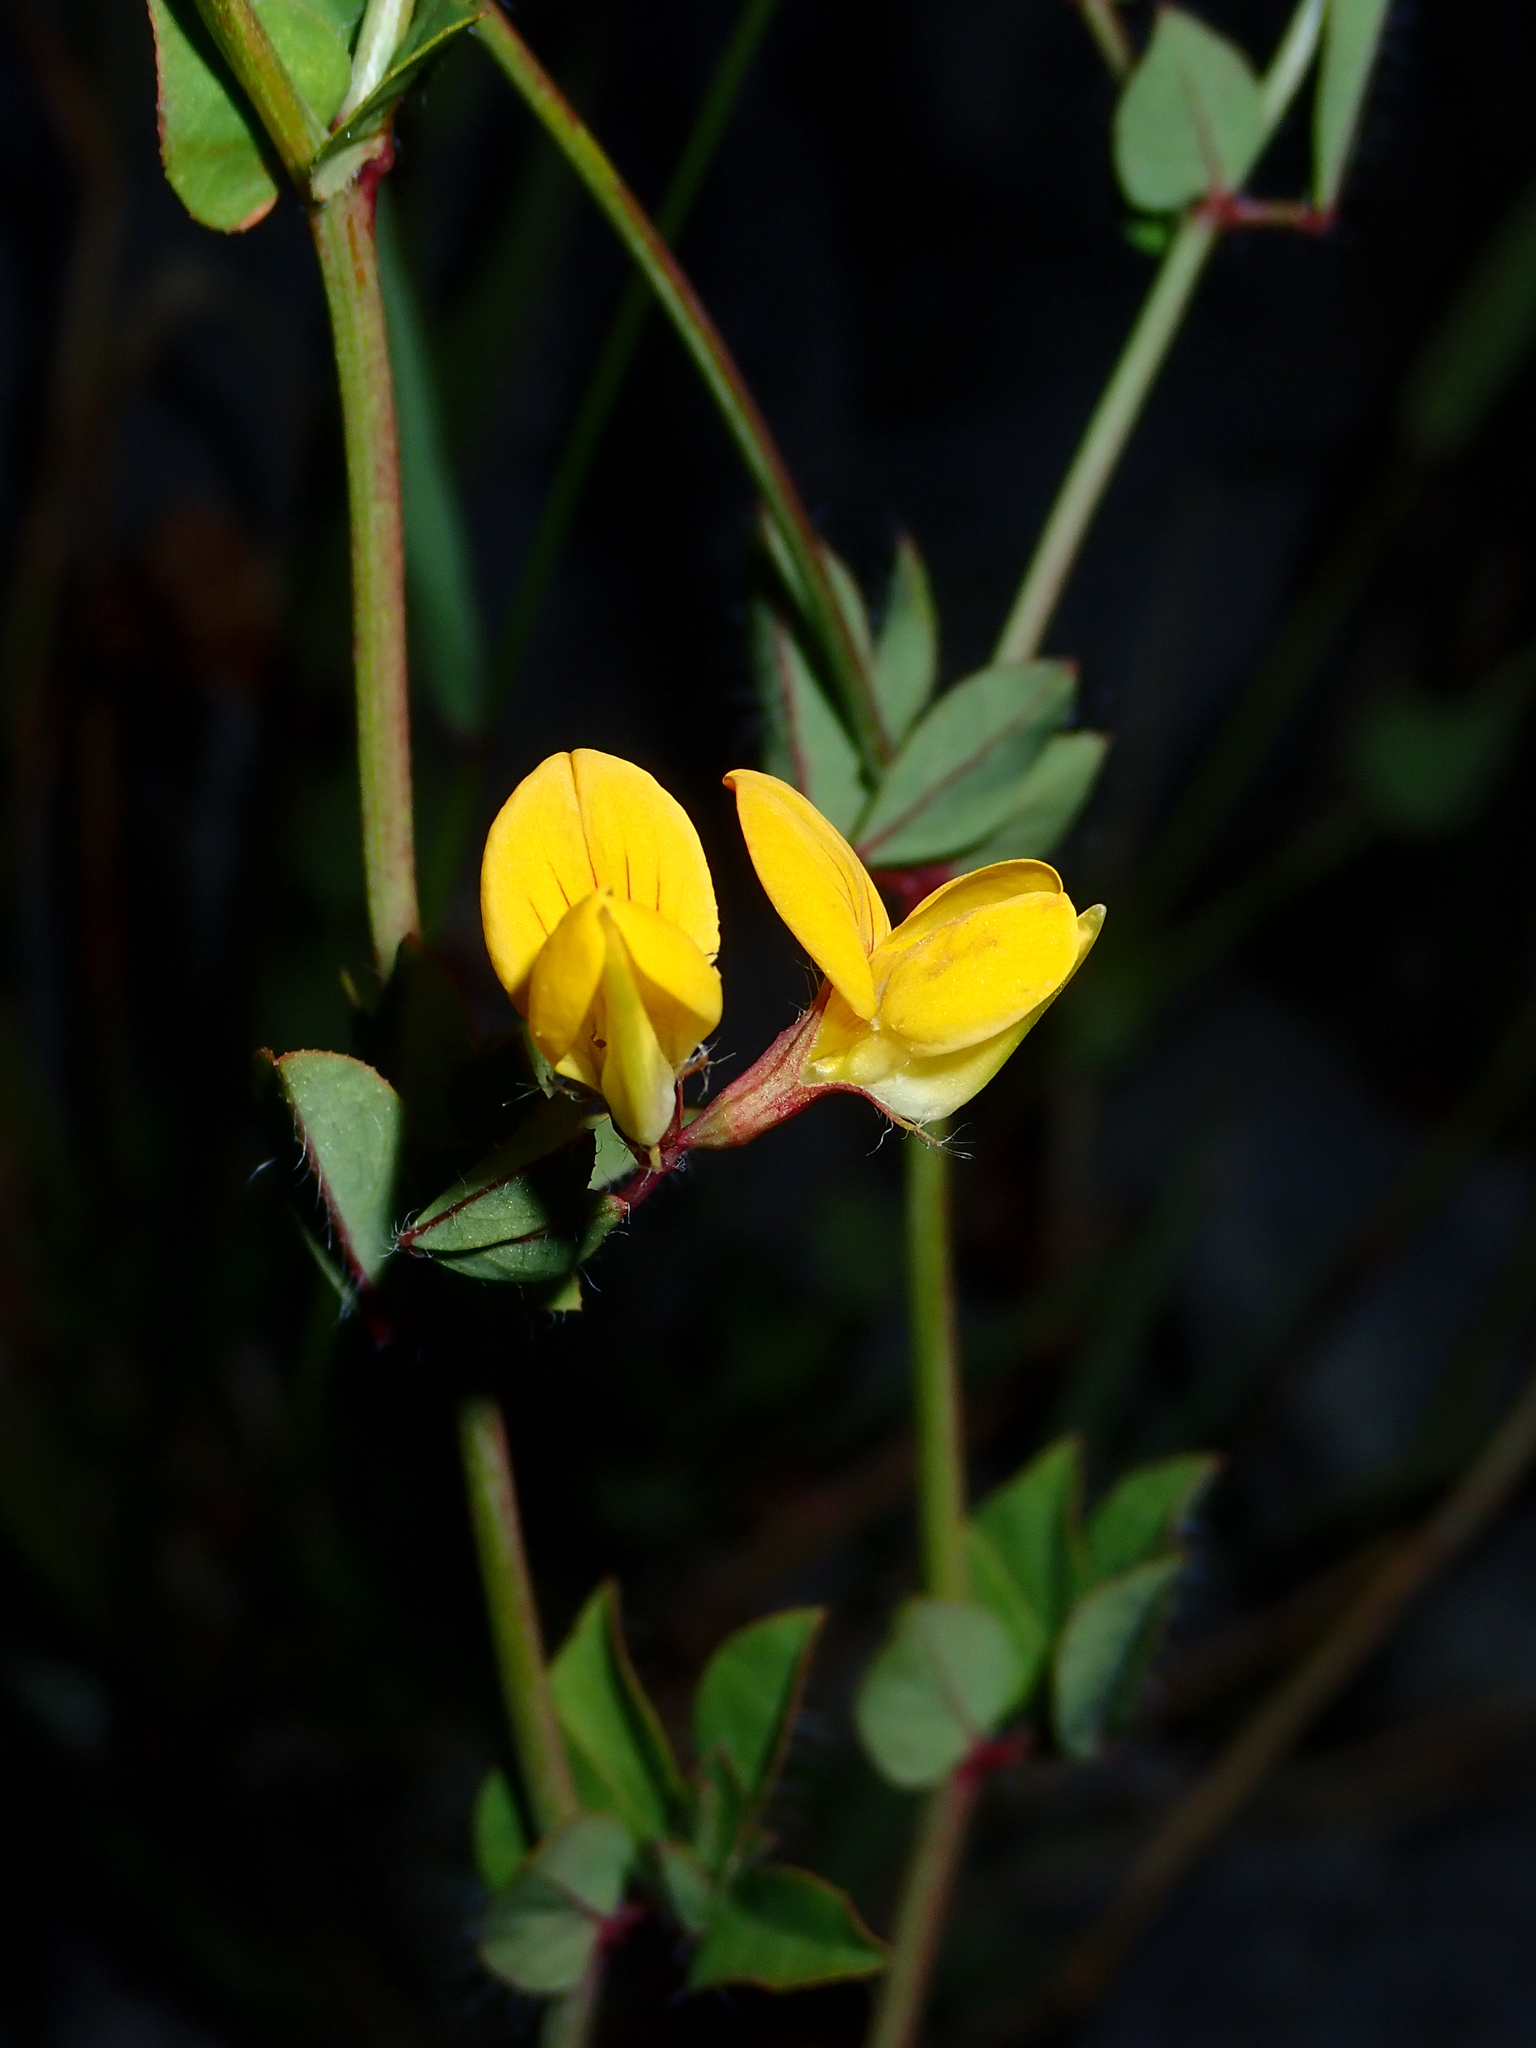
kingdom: Plantae
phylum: Tracheophyta
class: Magnoliopsida
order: Fabales
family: Fabaceae
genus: Lotus
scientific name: Lotus pedunculatus
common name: Greater birdsfoot-trefoil
